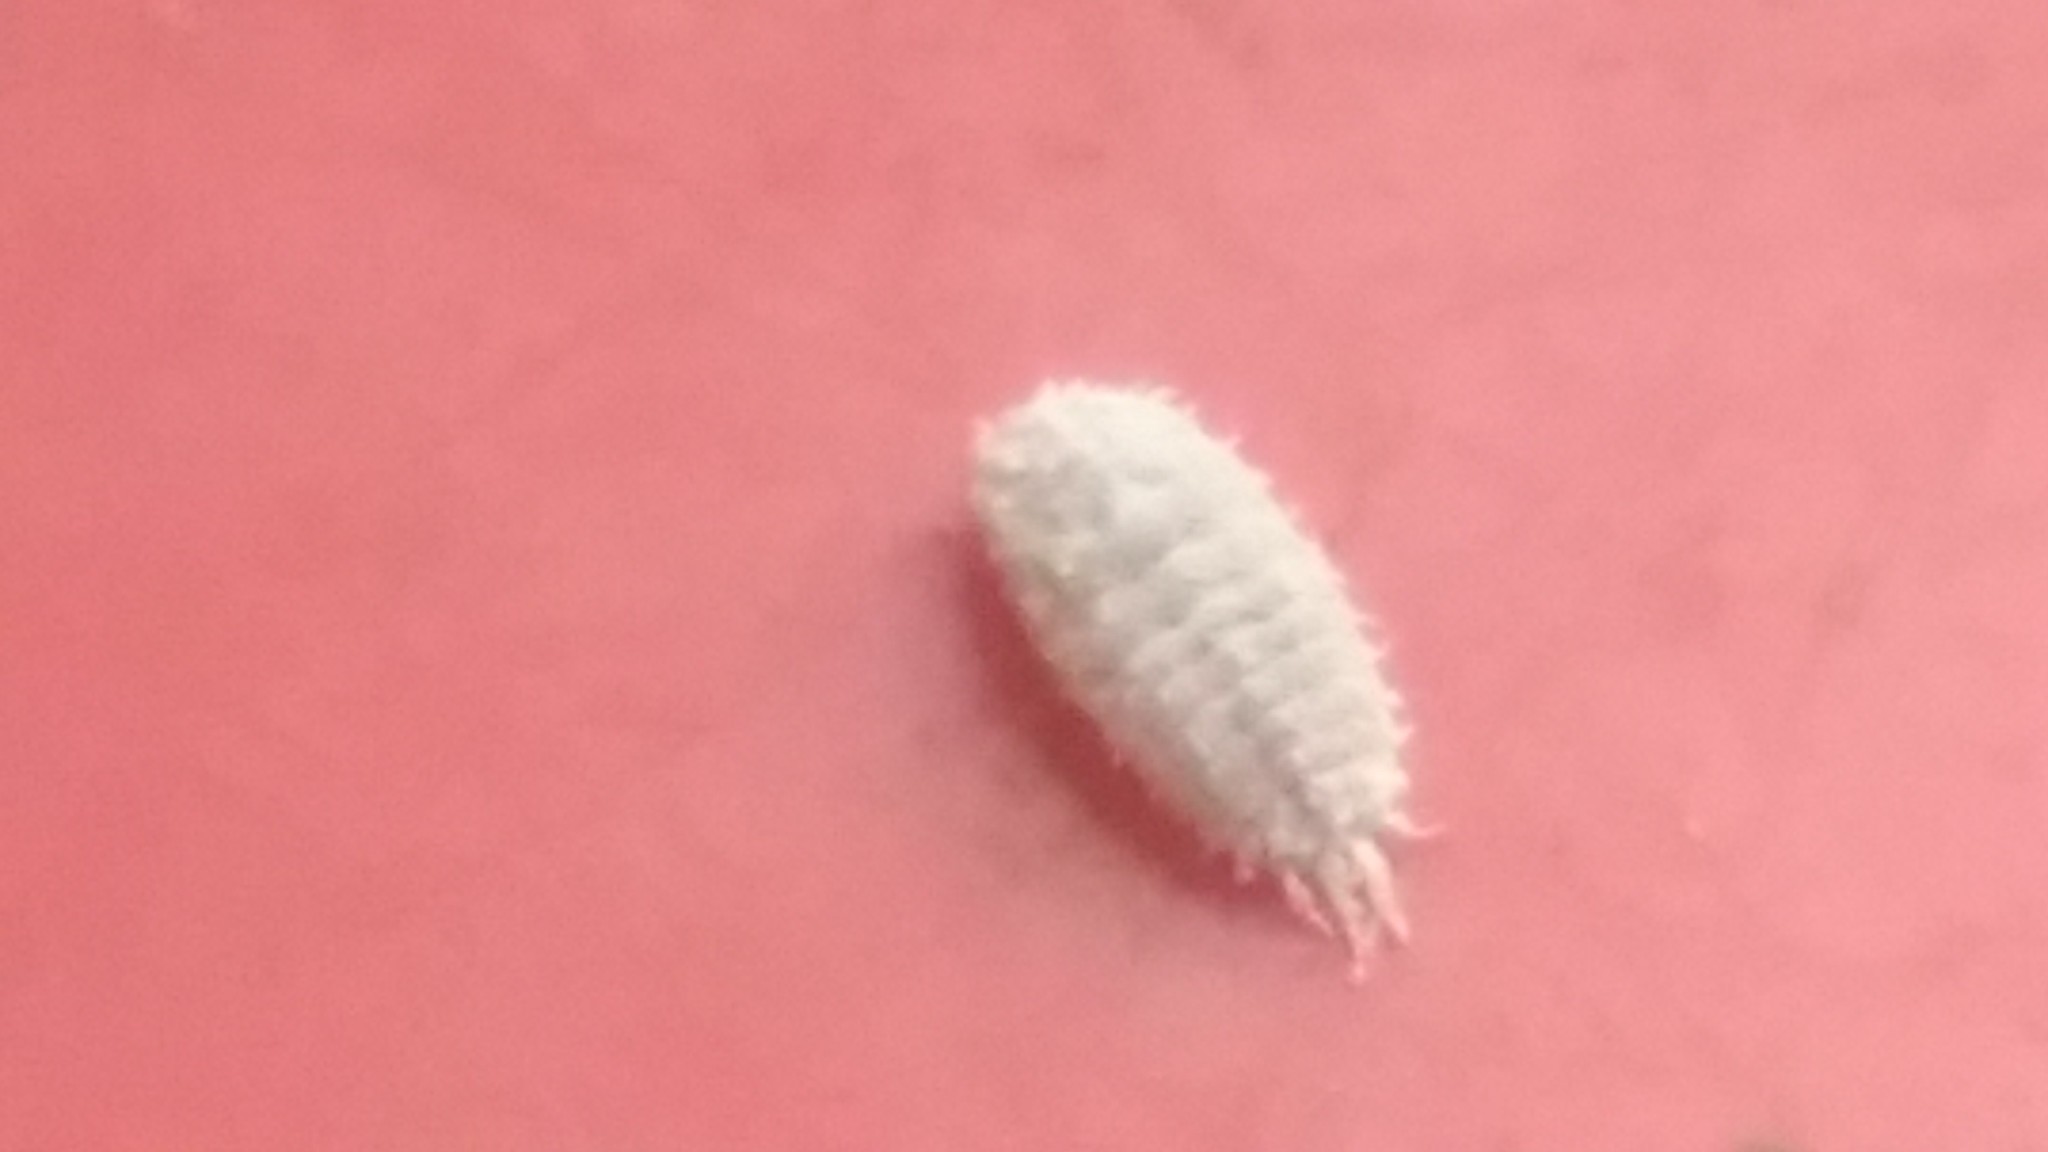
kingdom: Animalia
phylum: Arthropoda
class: Insecta
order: Hemiptera
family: Pseudococcidae
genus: Planococcus
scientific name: Planococcus citri
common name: Citrus mealybug
